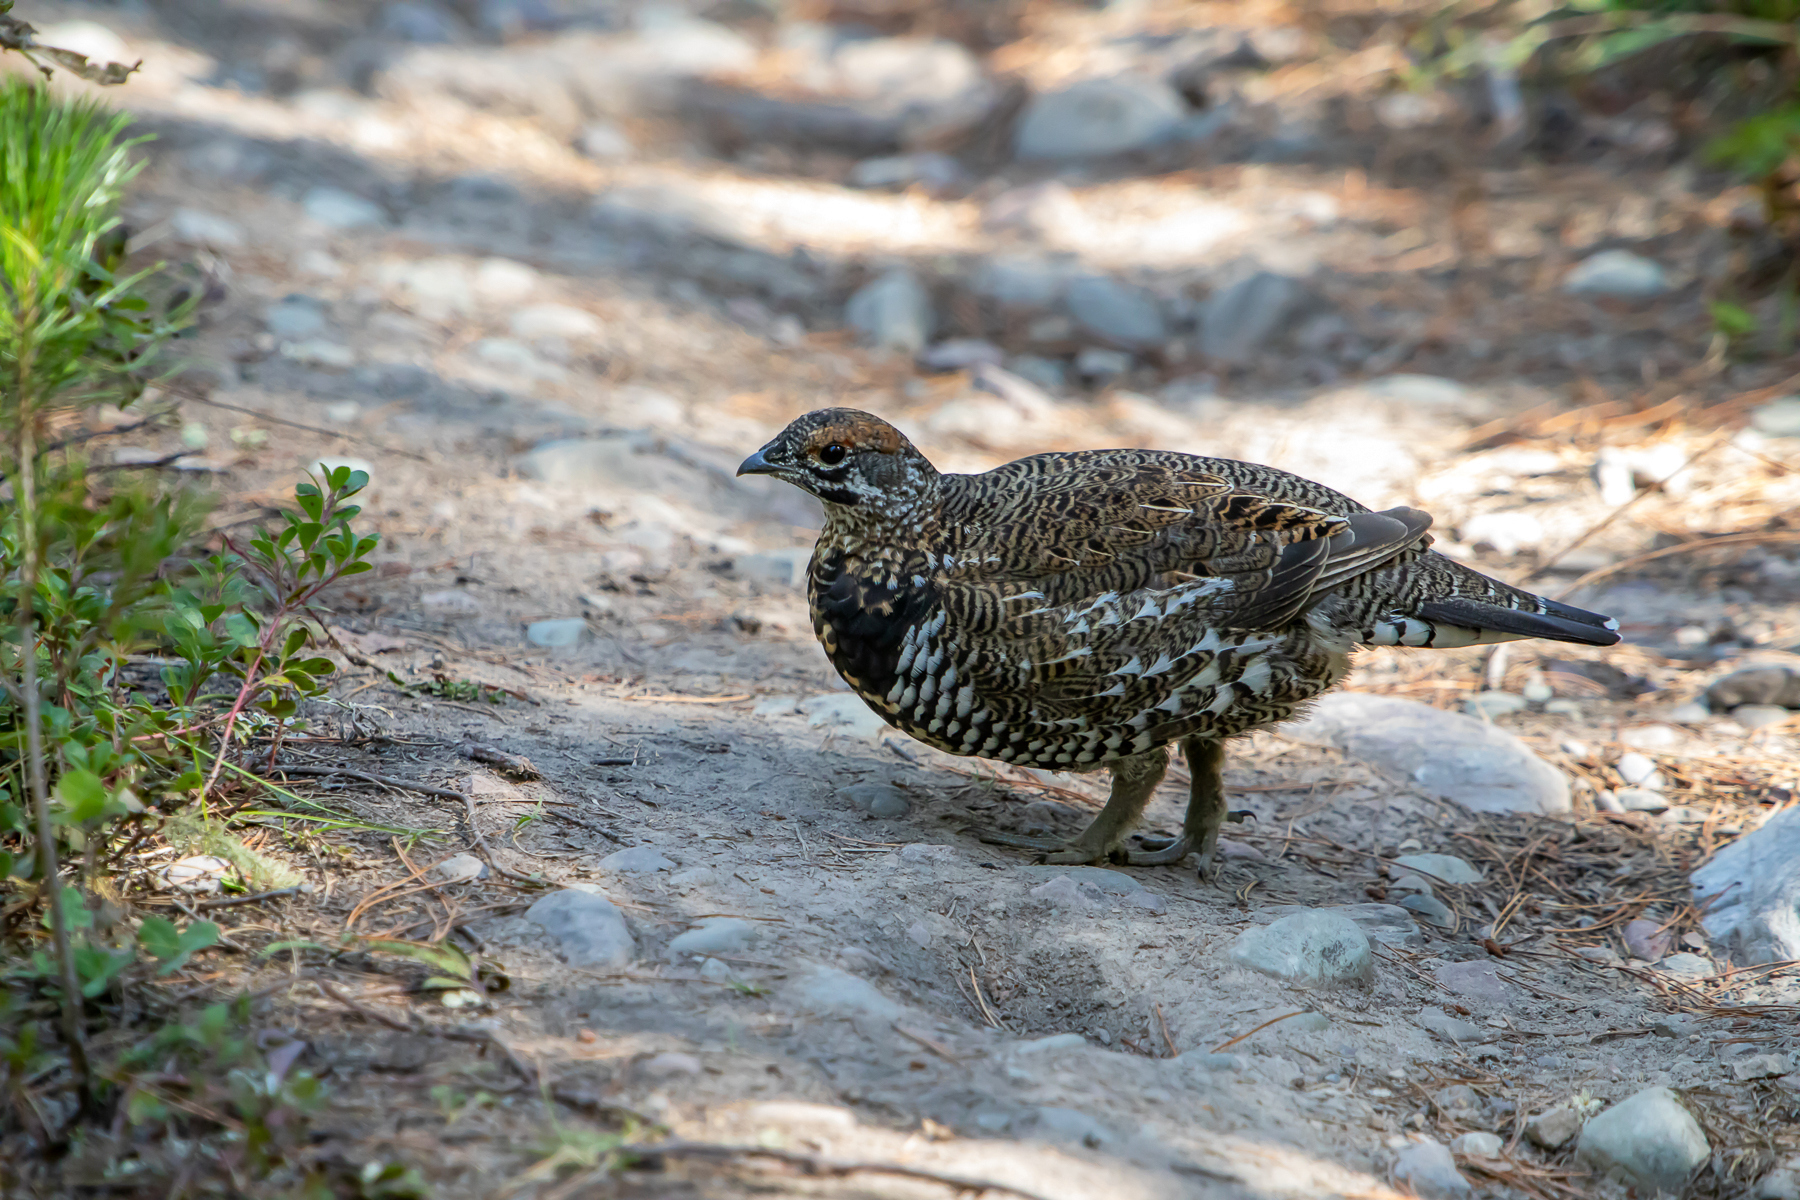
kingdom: Animalia
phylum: Chordata
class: Aves
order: Galliformes
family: Phasianidae
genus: Canachites
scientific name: Canachites canadensis
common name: Spruce grouse
